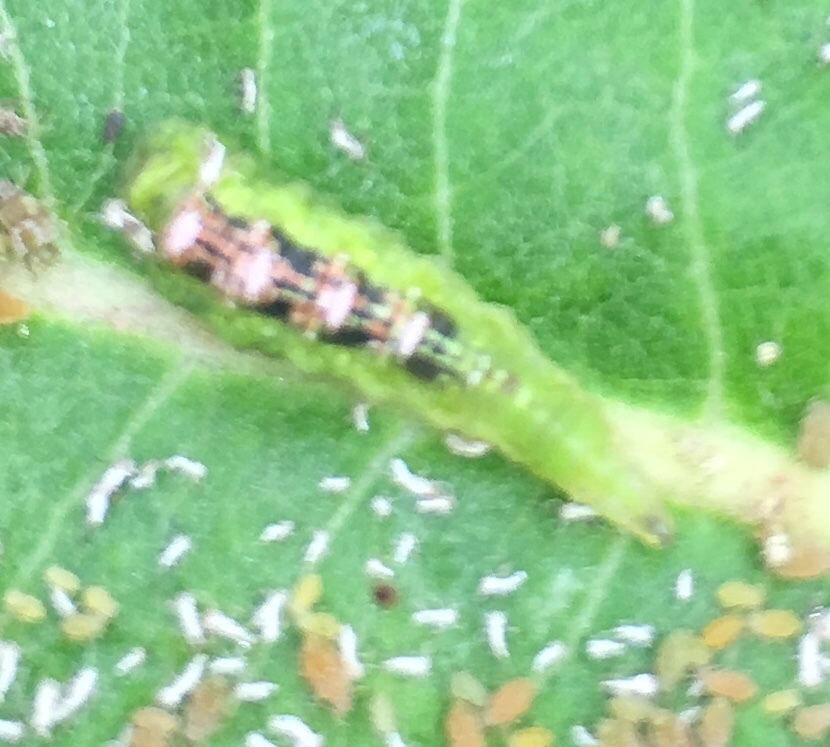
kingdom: Animalia
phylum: Arthropoda
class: Insecta
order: Diptera
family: Syrphidae
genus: Eupeodes
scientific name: Eupeodes pomus
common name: Short-tailed aphideater
